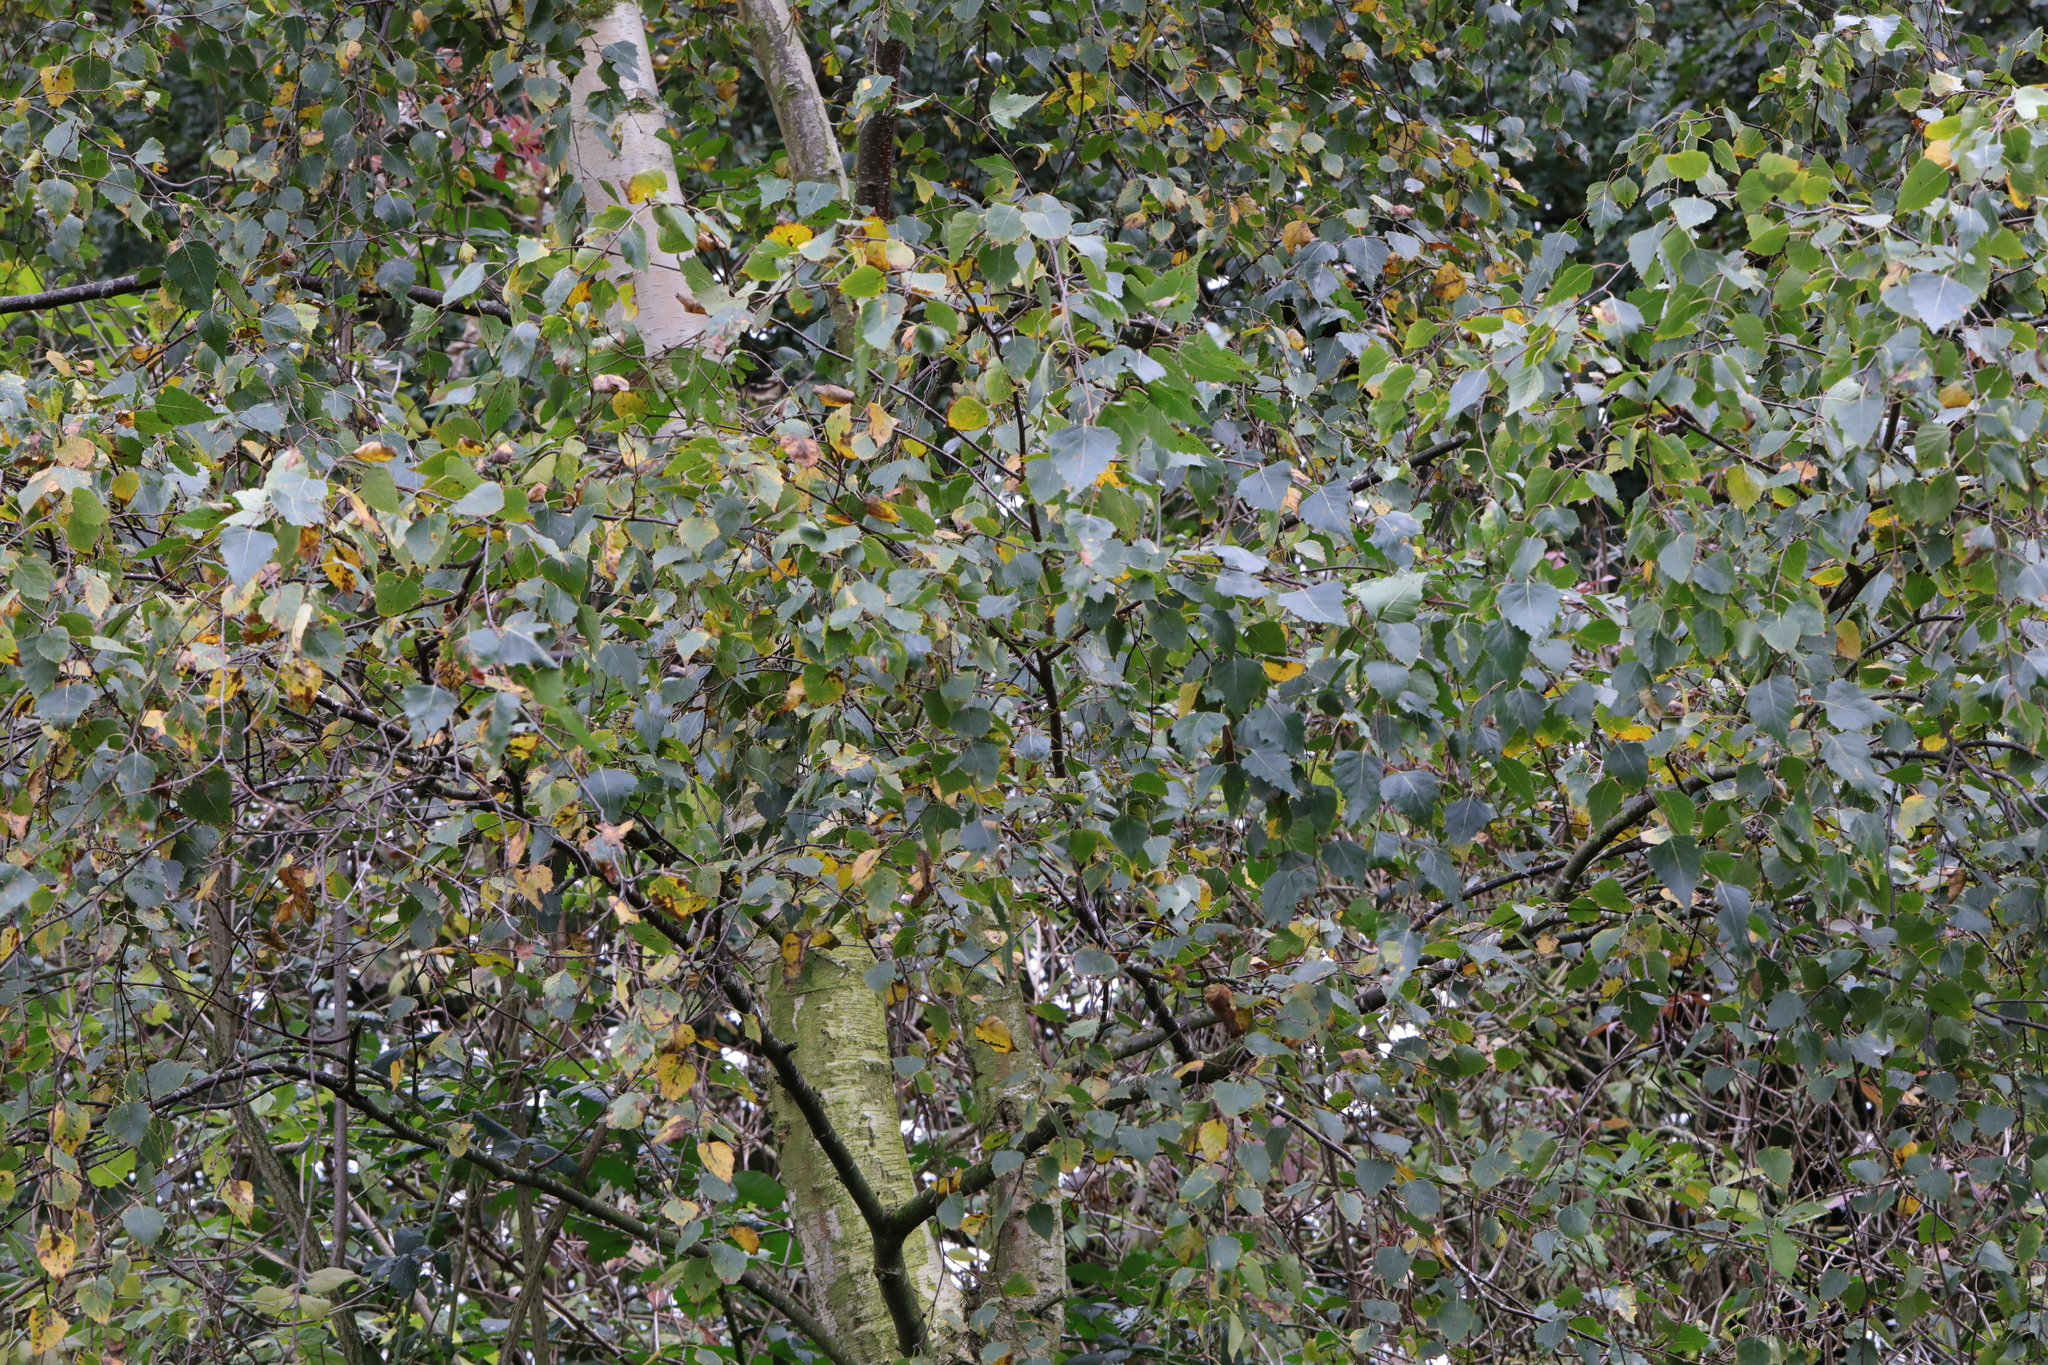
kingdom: Plantae
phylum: Tracheophyta
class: Magnoliopsida
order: Fagales
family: Betulaceae
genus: Betula
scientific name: Betula pendula
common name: Silver birch
